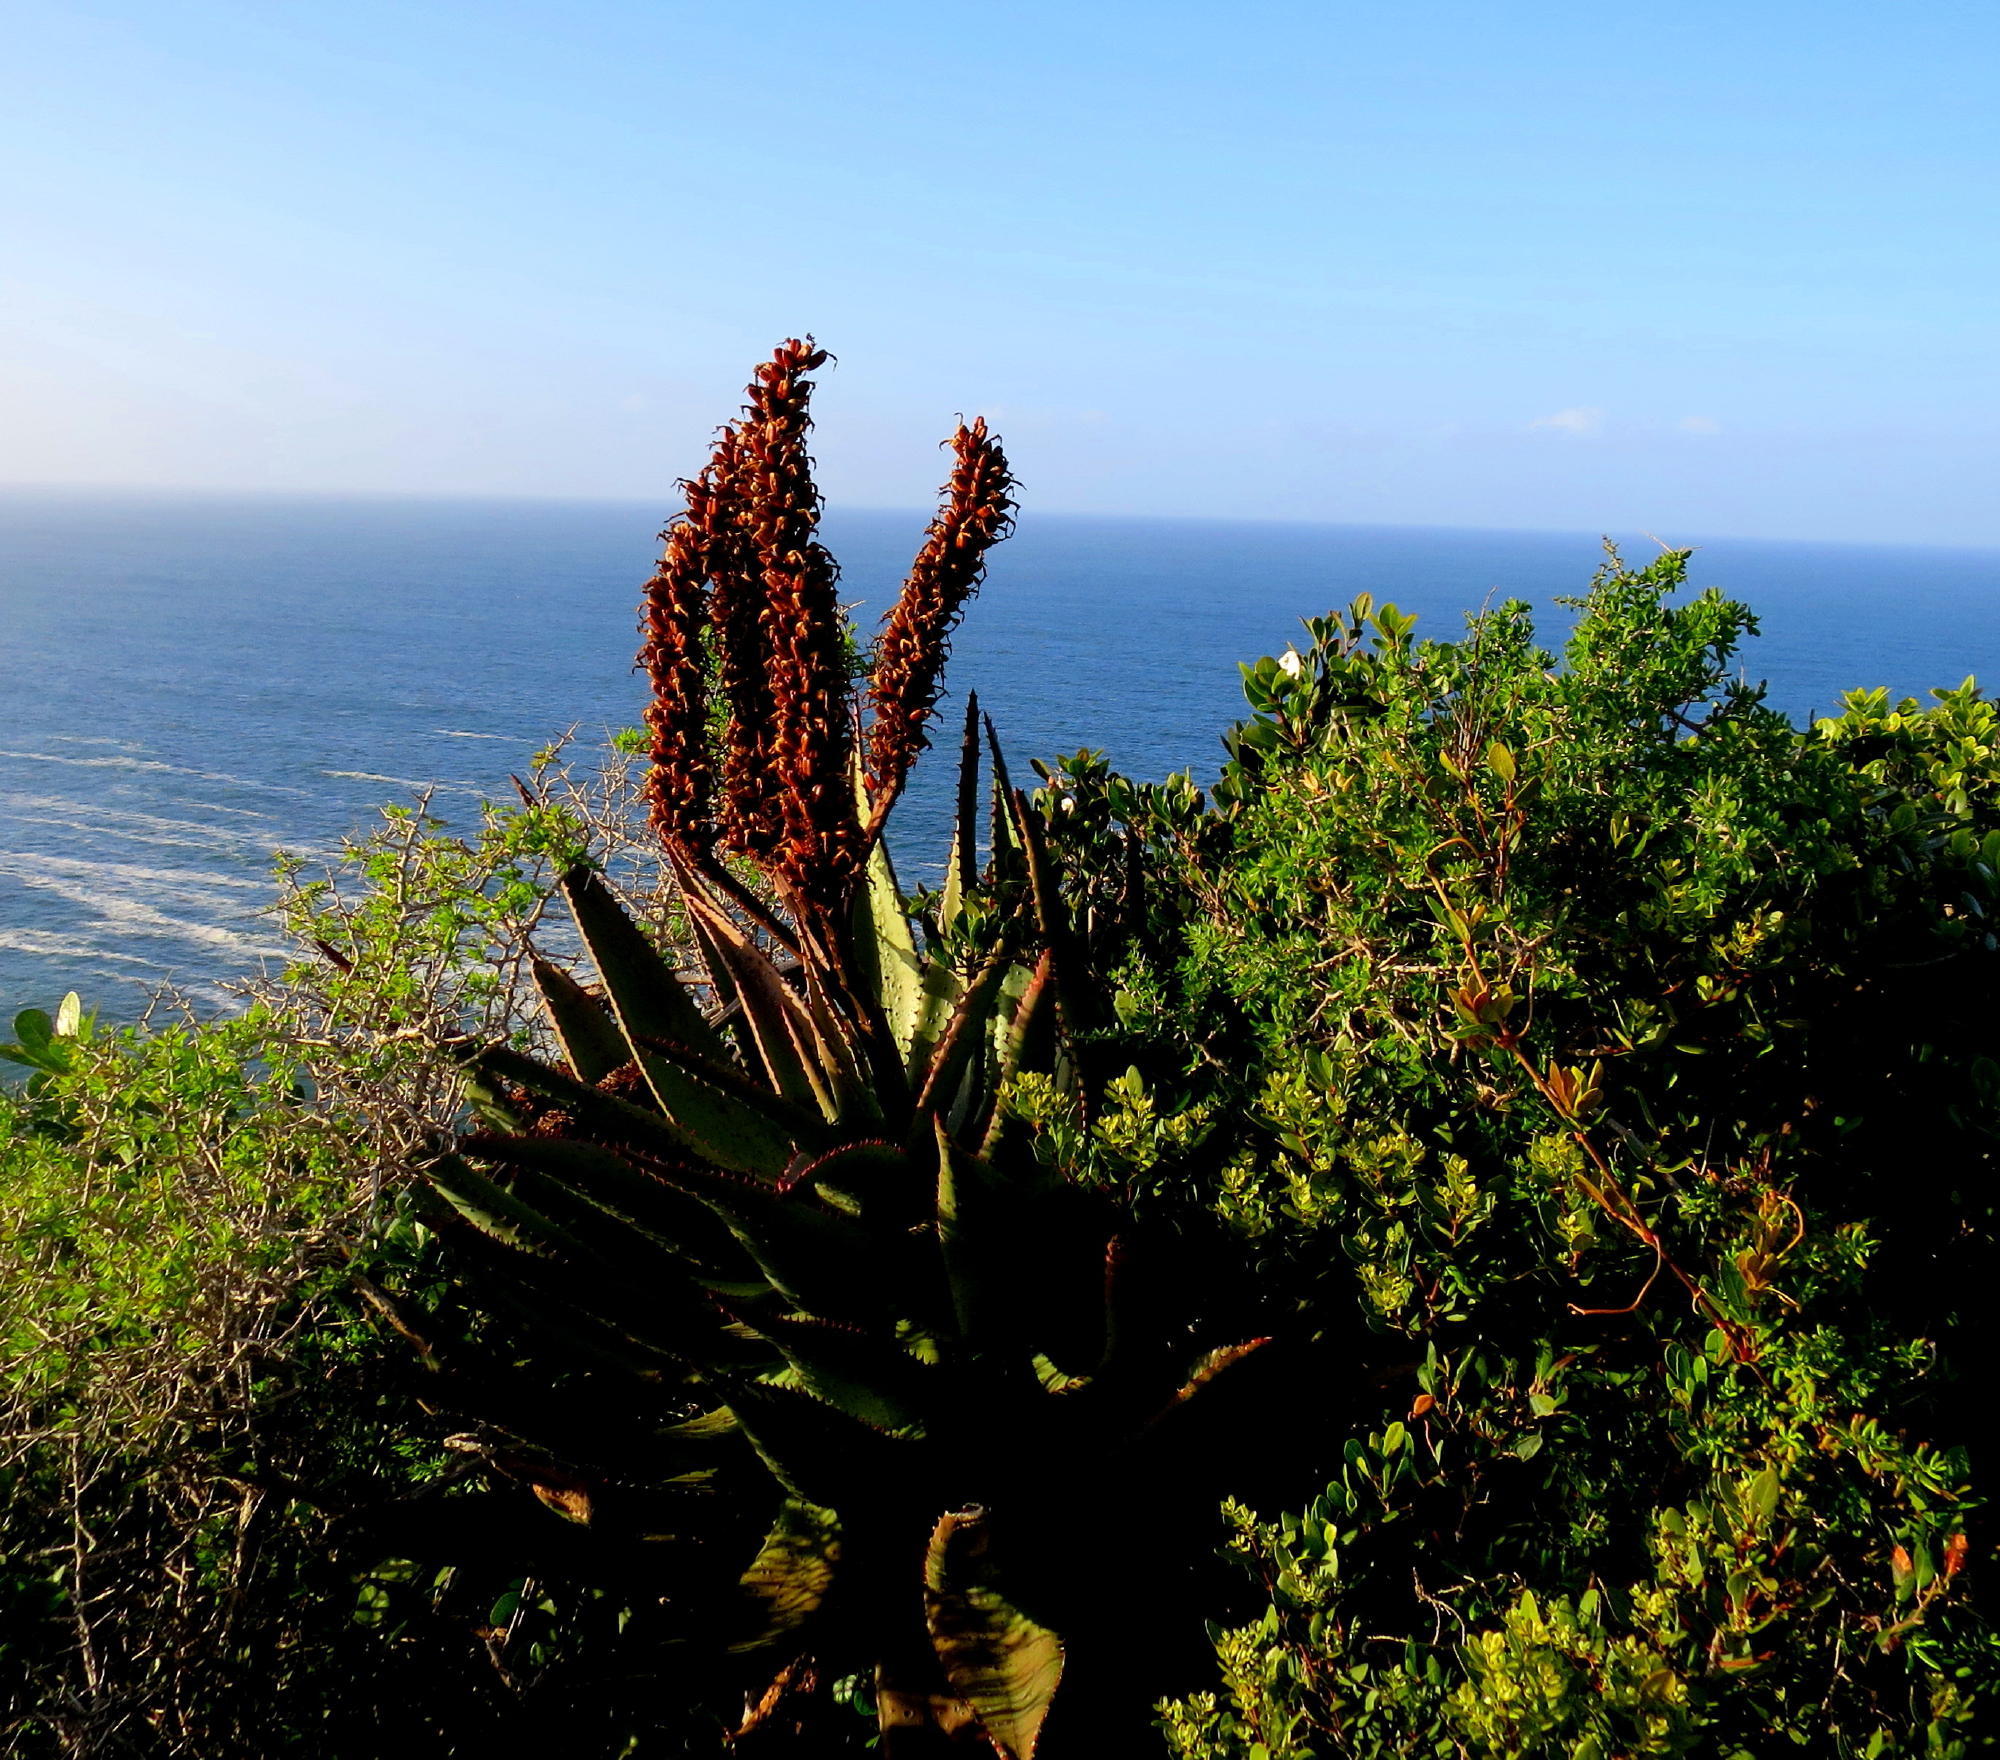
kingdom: Plantae
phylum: Tracheophyta
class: Liliopsida
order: Asparagales
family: Asphodelaceae
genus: Aloe
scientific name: Aloe ferox
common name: Bitter aloe
